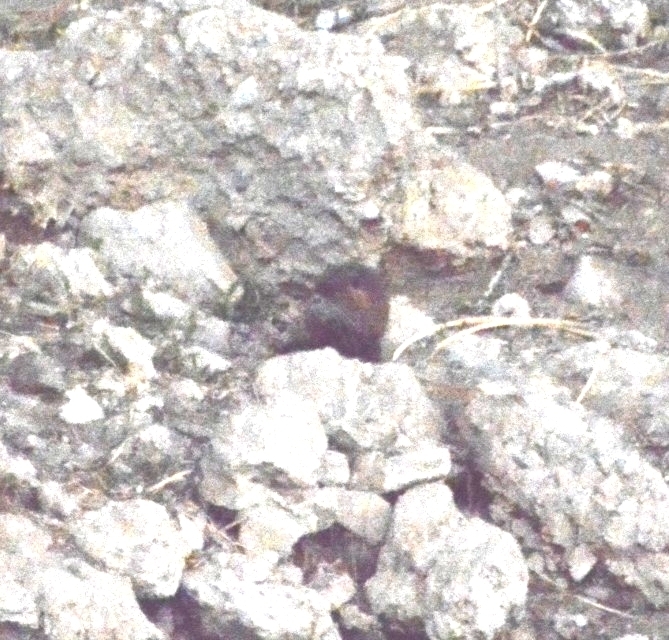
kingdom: Animalia
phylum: Chordata
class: Mammalia
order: Rodentia
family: Myocastoridae
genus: Myocastor
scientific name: Myocastor coypus
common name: Coypu
